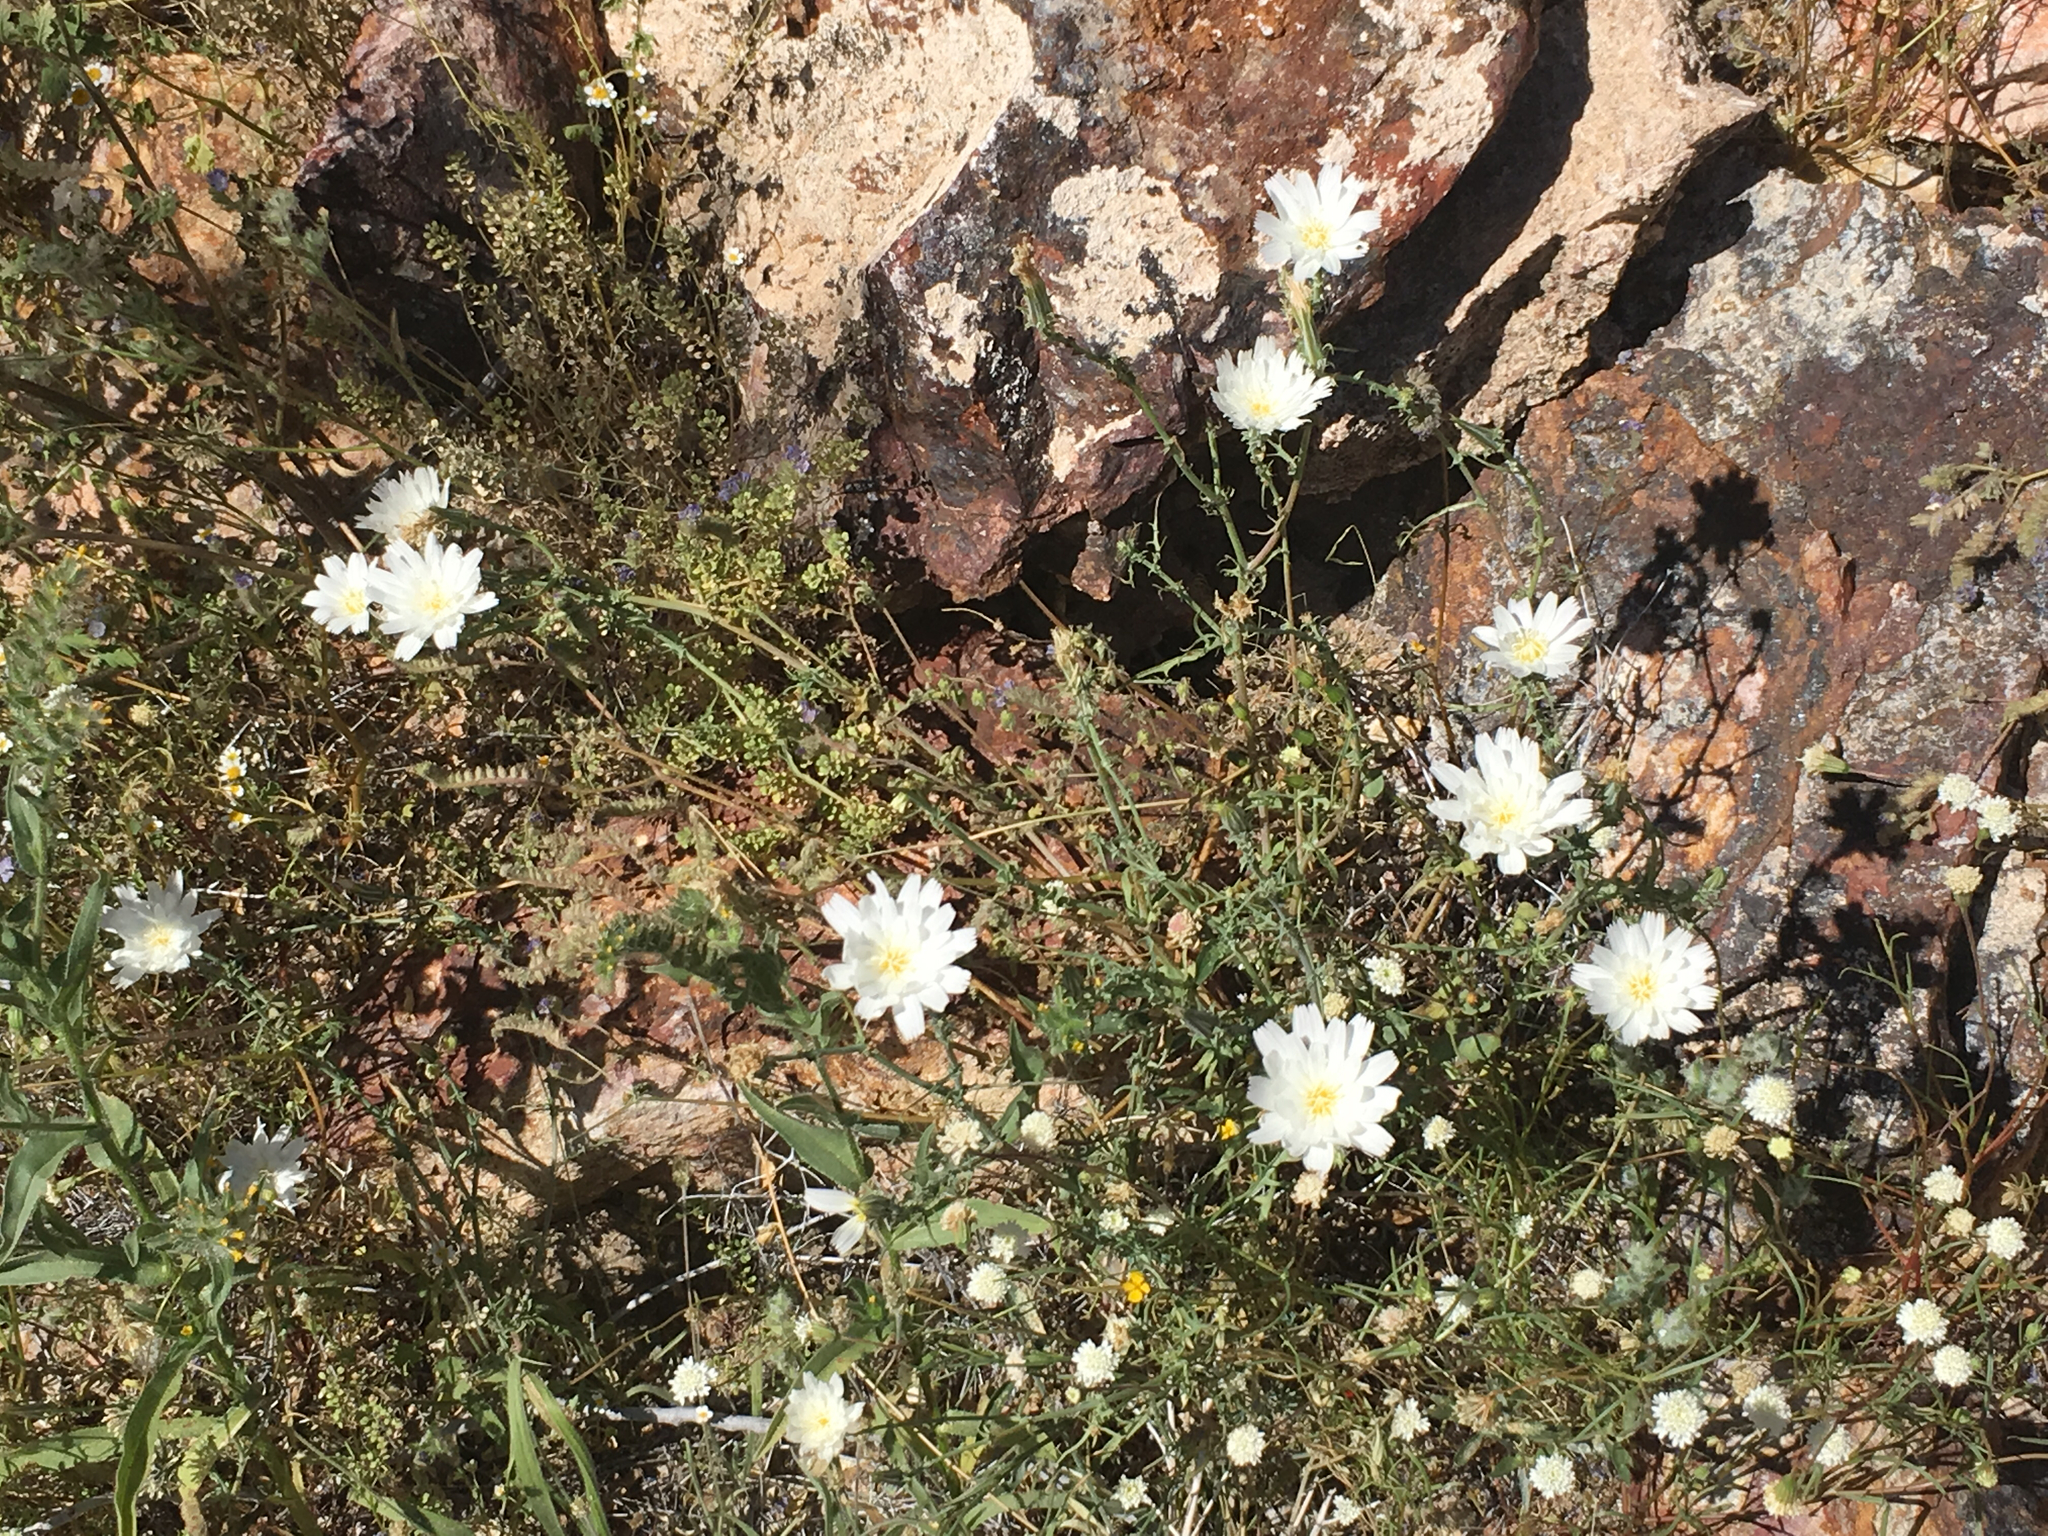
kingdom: Plantae
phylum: Tracheophyta
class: Magnoliopsida
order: Asterales
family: Asteraceae
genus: Rafinesquia
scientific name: Rafinesquia neomexicana
